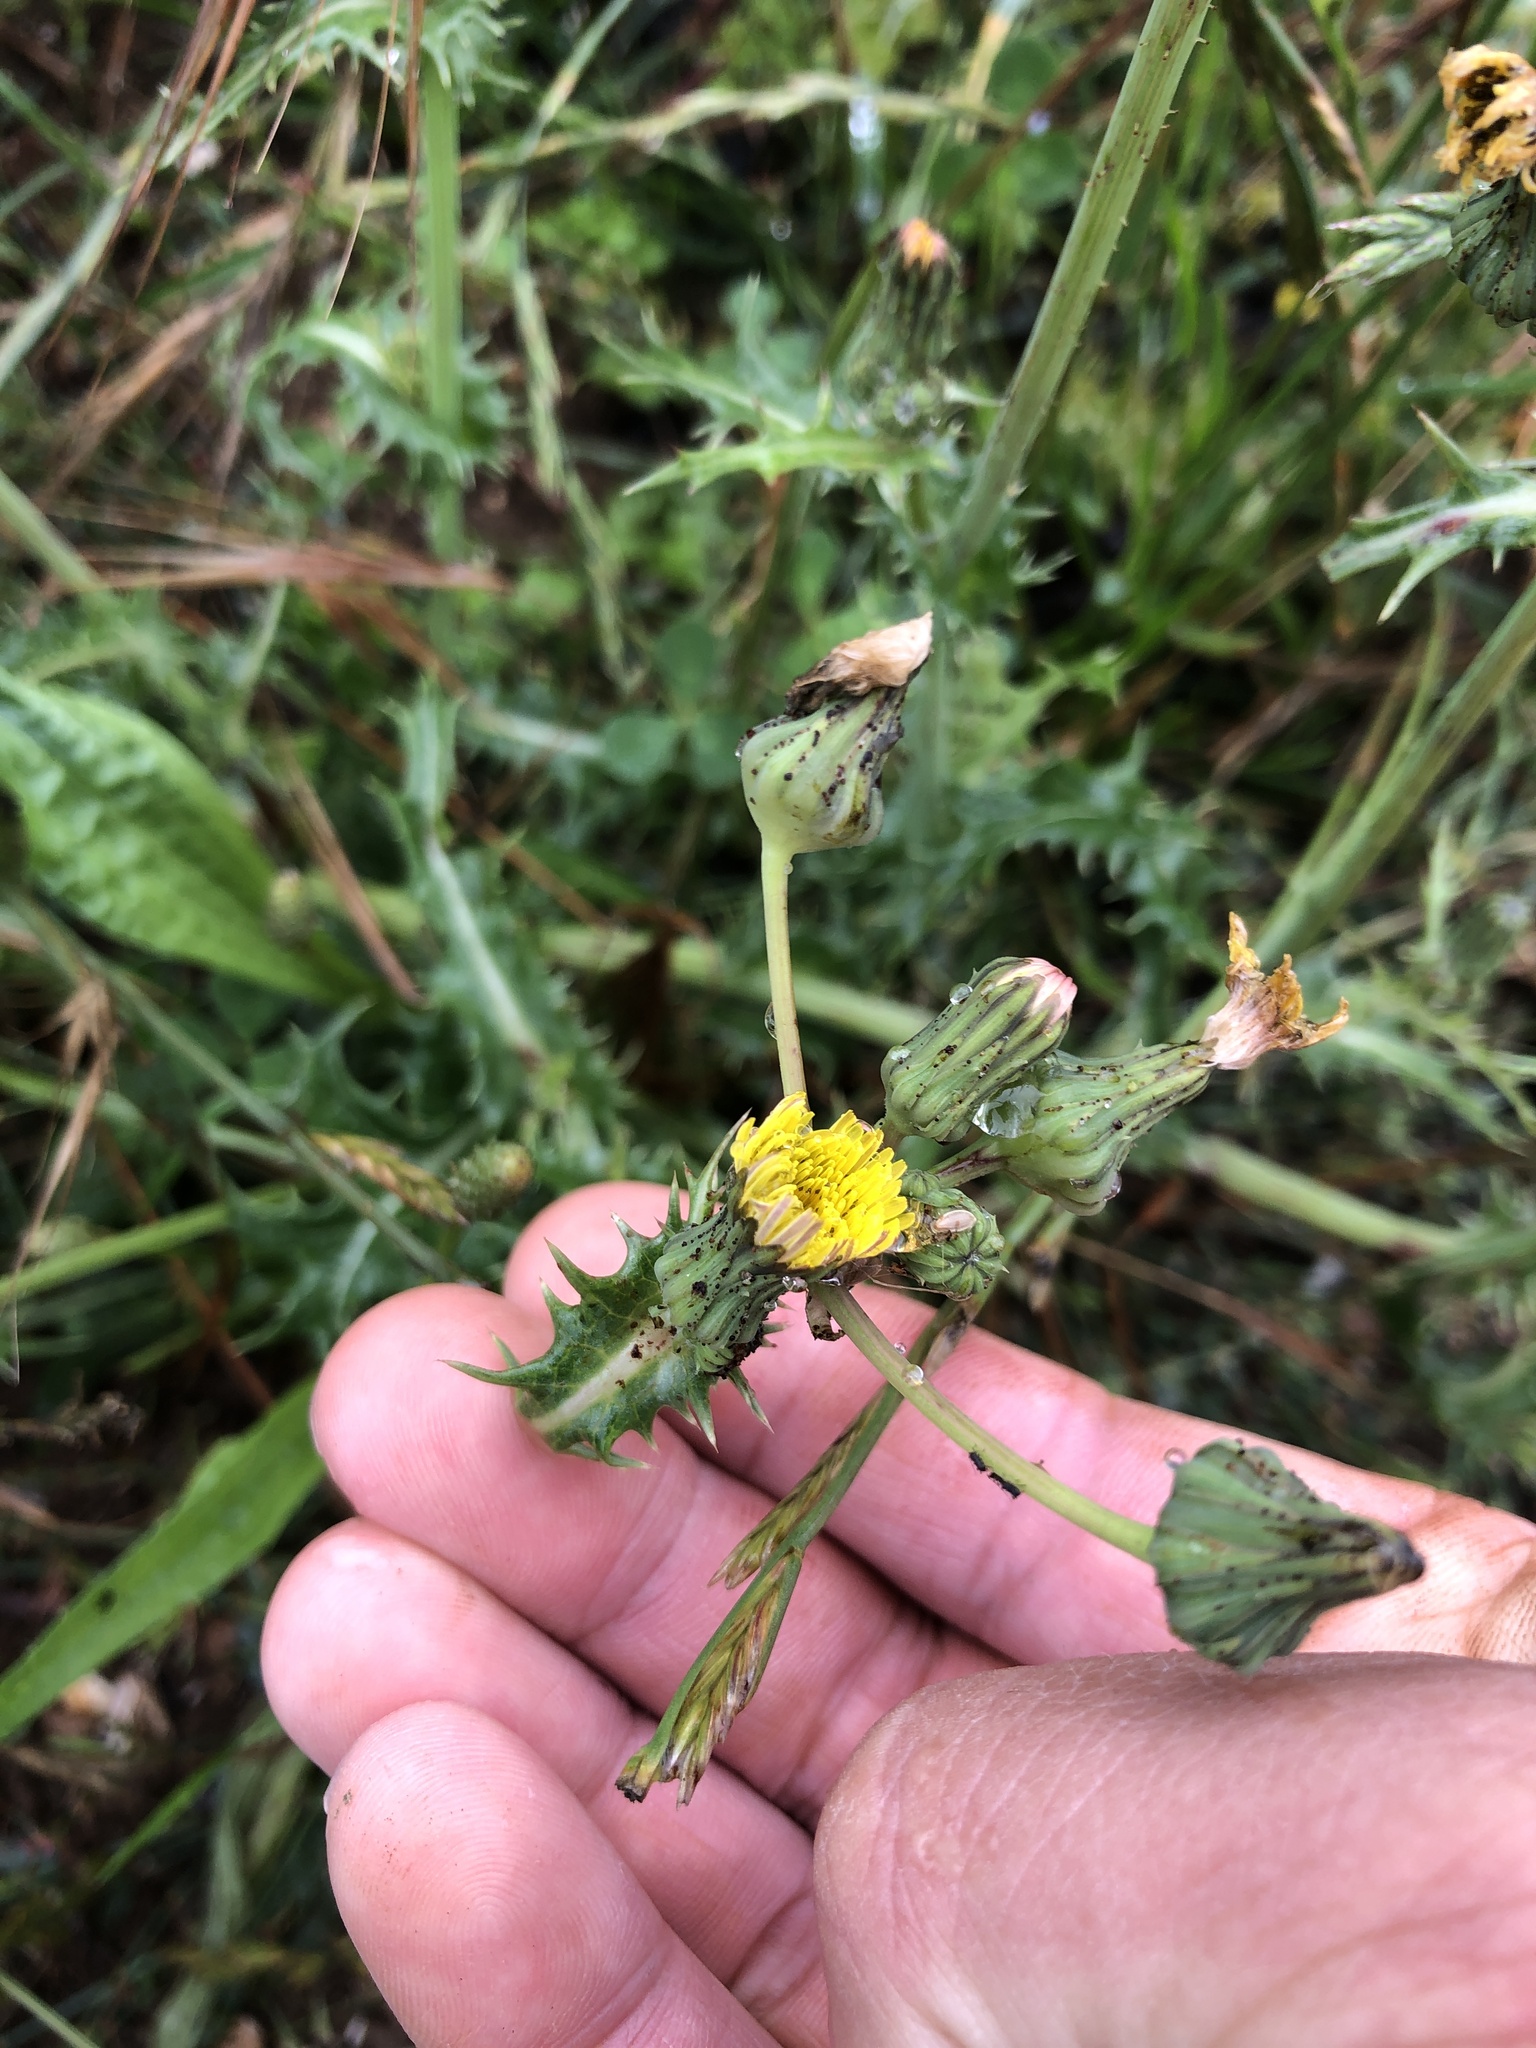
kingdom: Plantae
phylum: Tracheophyta
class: Magnoliopsida
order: Asterales
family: Asteraceae
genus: Sonchus
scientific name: Sonchus asper
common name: Prickly sow-thistle
